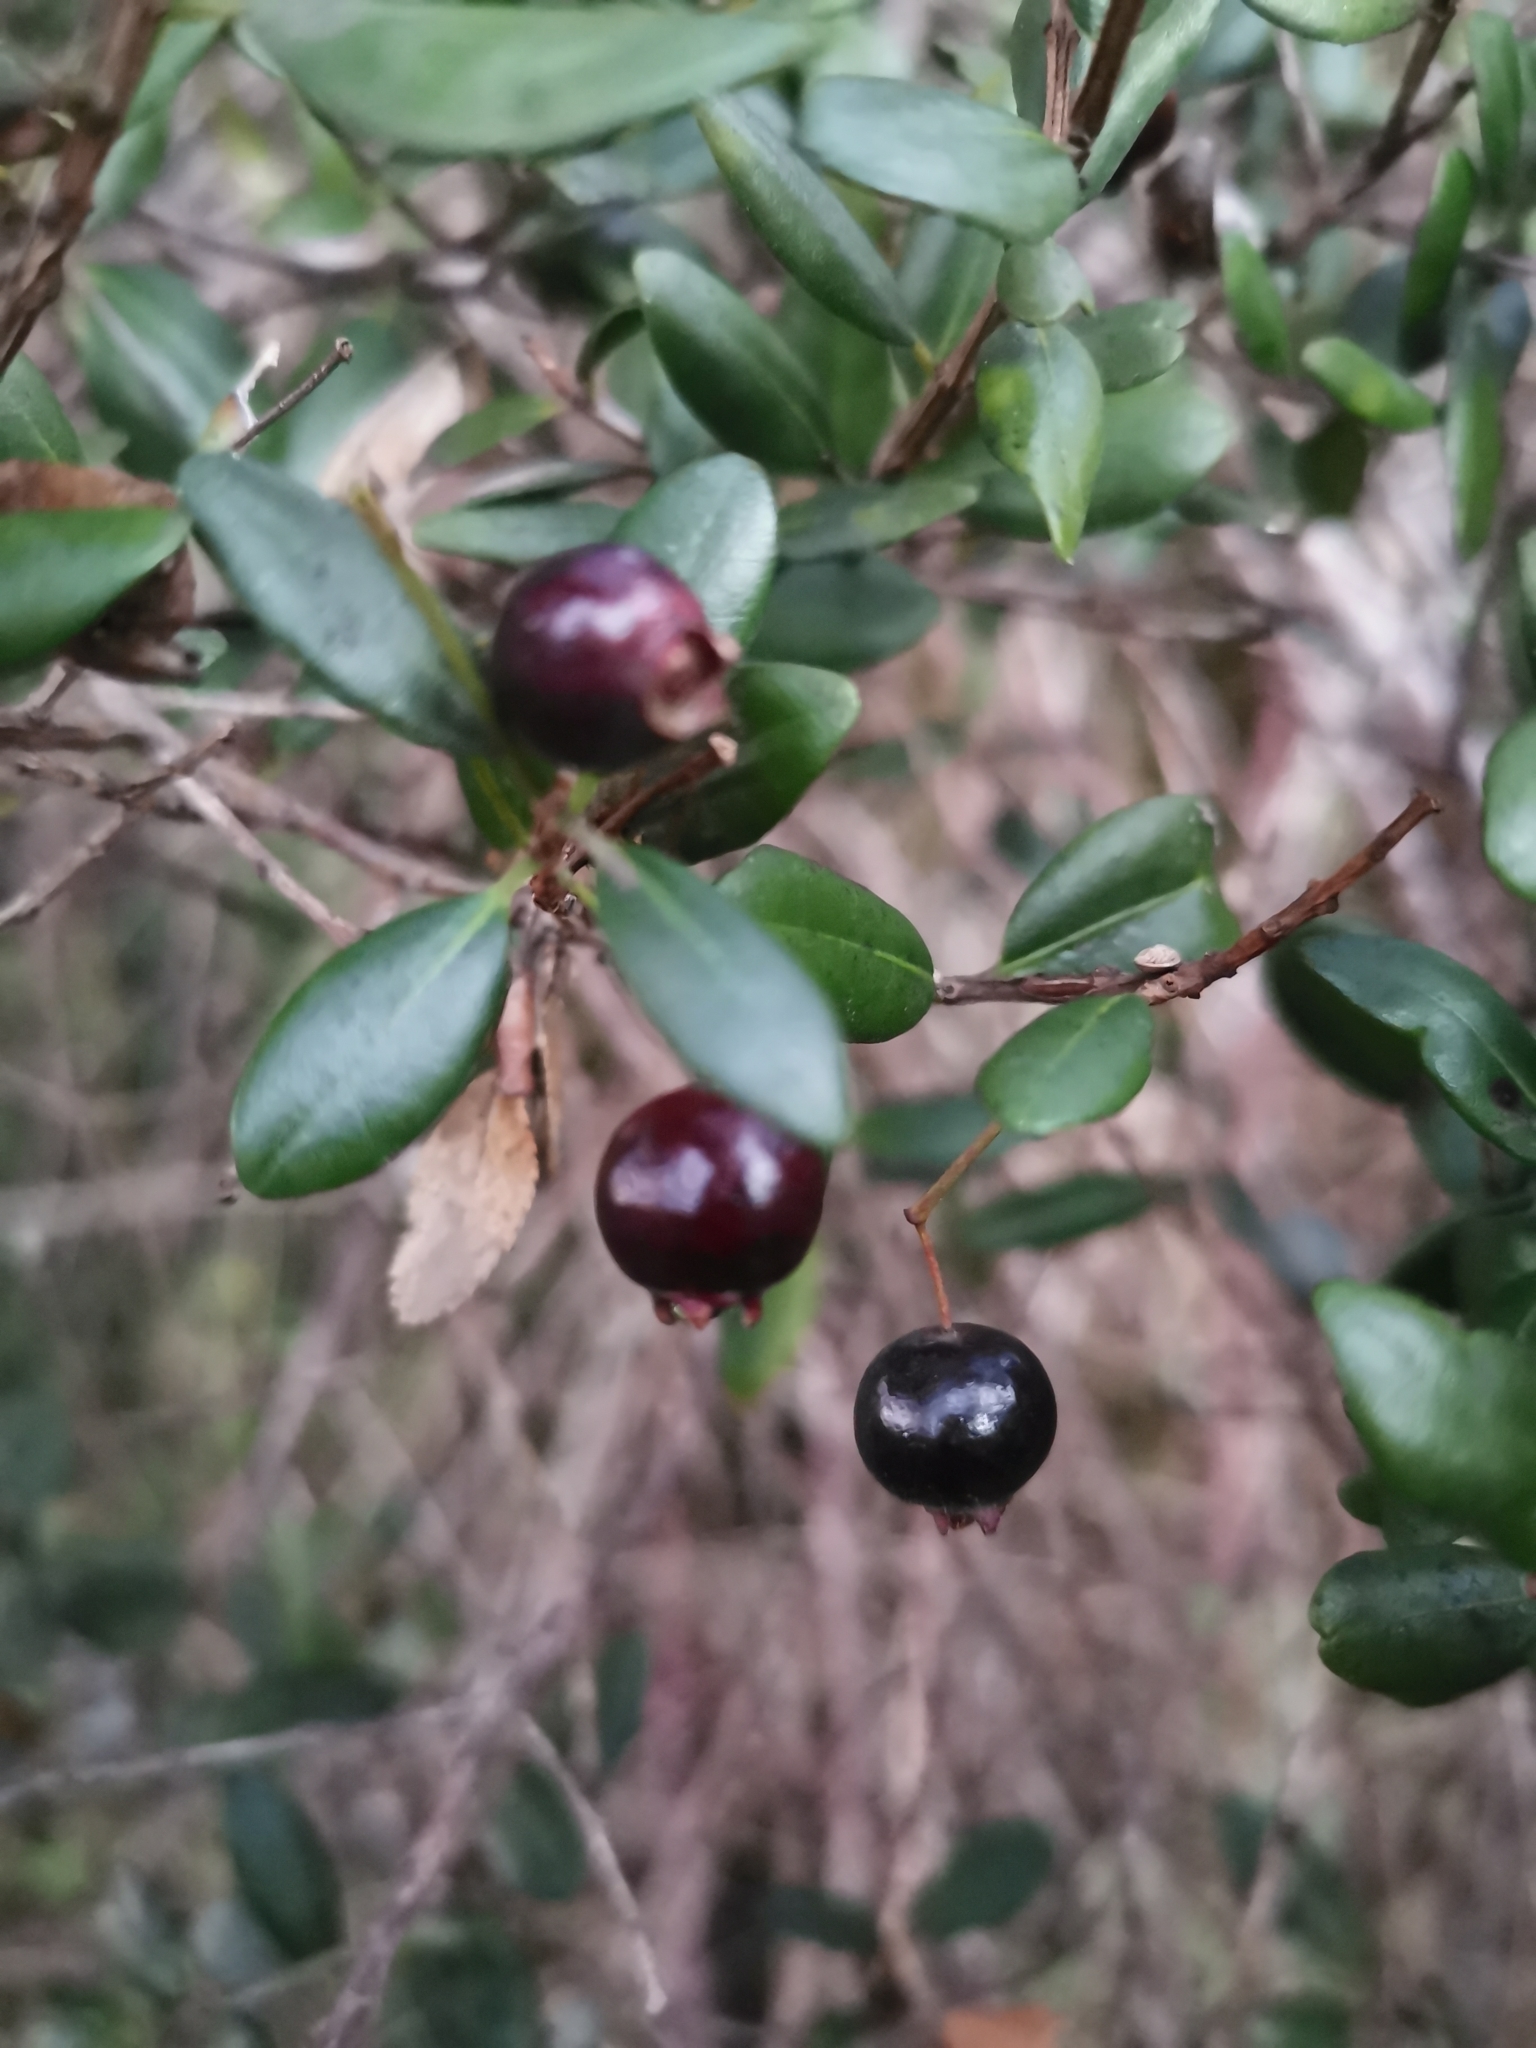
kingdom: Plantae
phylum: Tracheophyta
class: Magnoliopsida
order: Myrtales
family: Myrtaceae
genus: Blepharocalyx
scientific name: Blepharocalyx cruckshanksii
